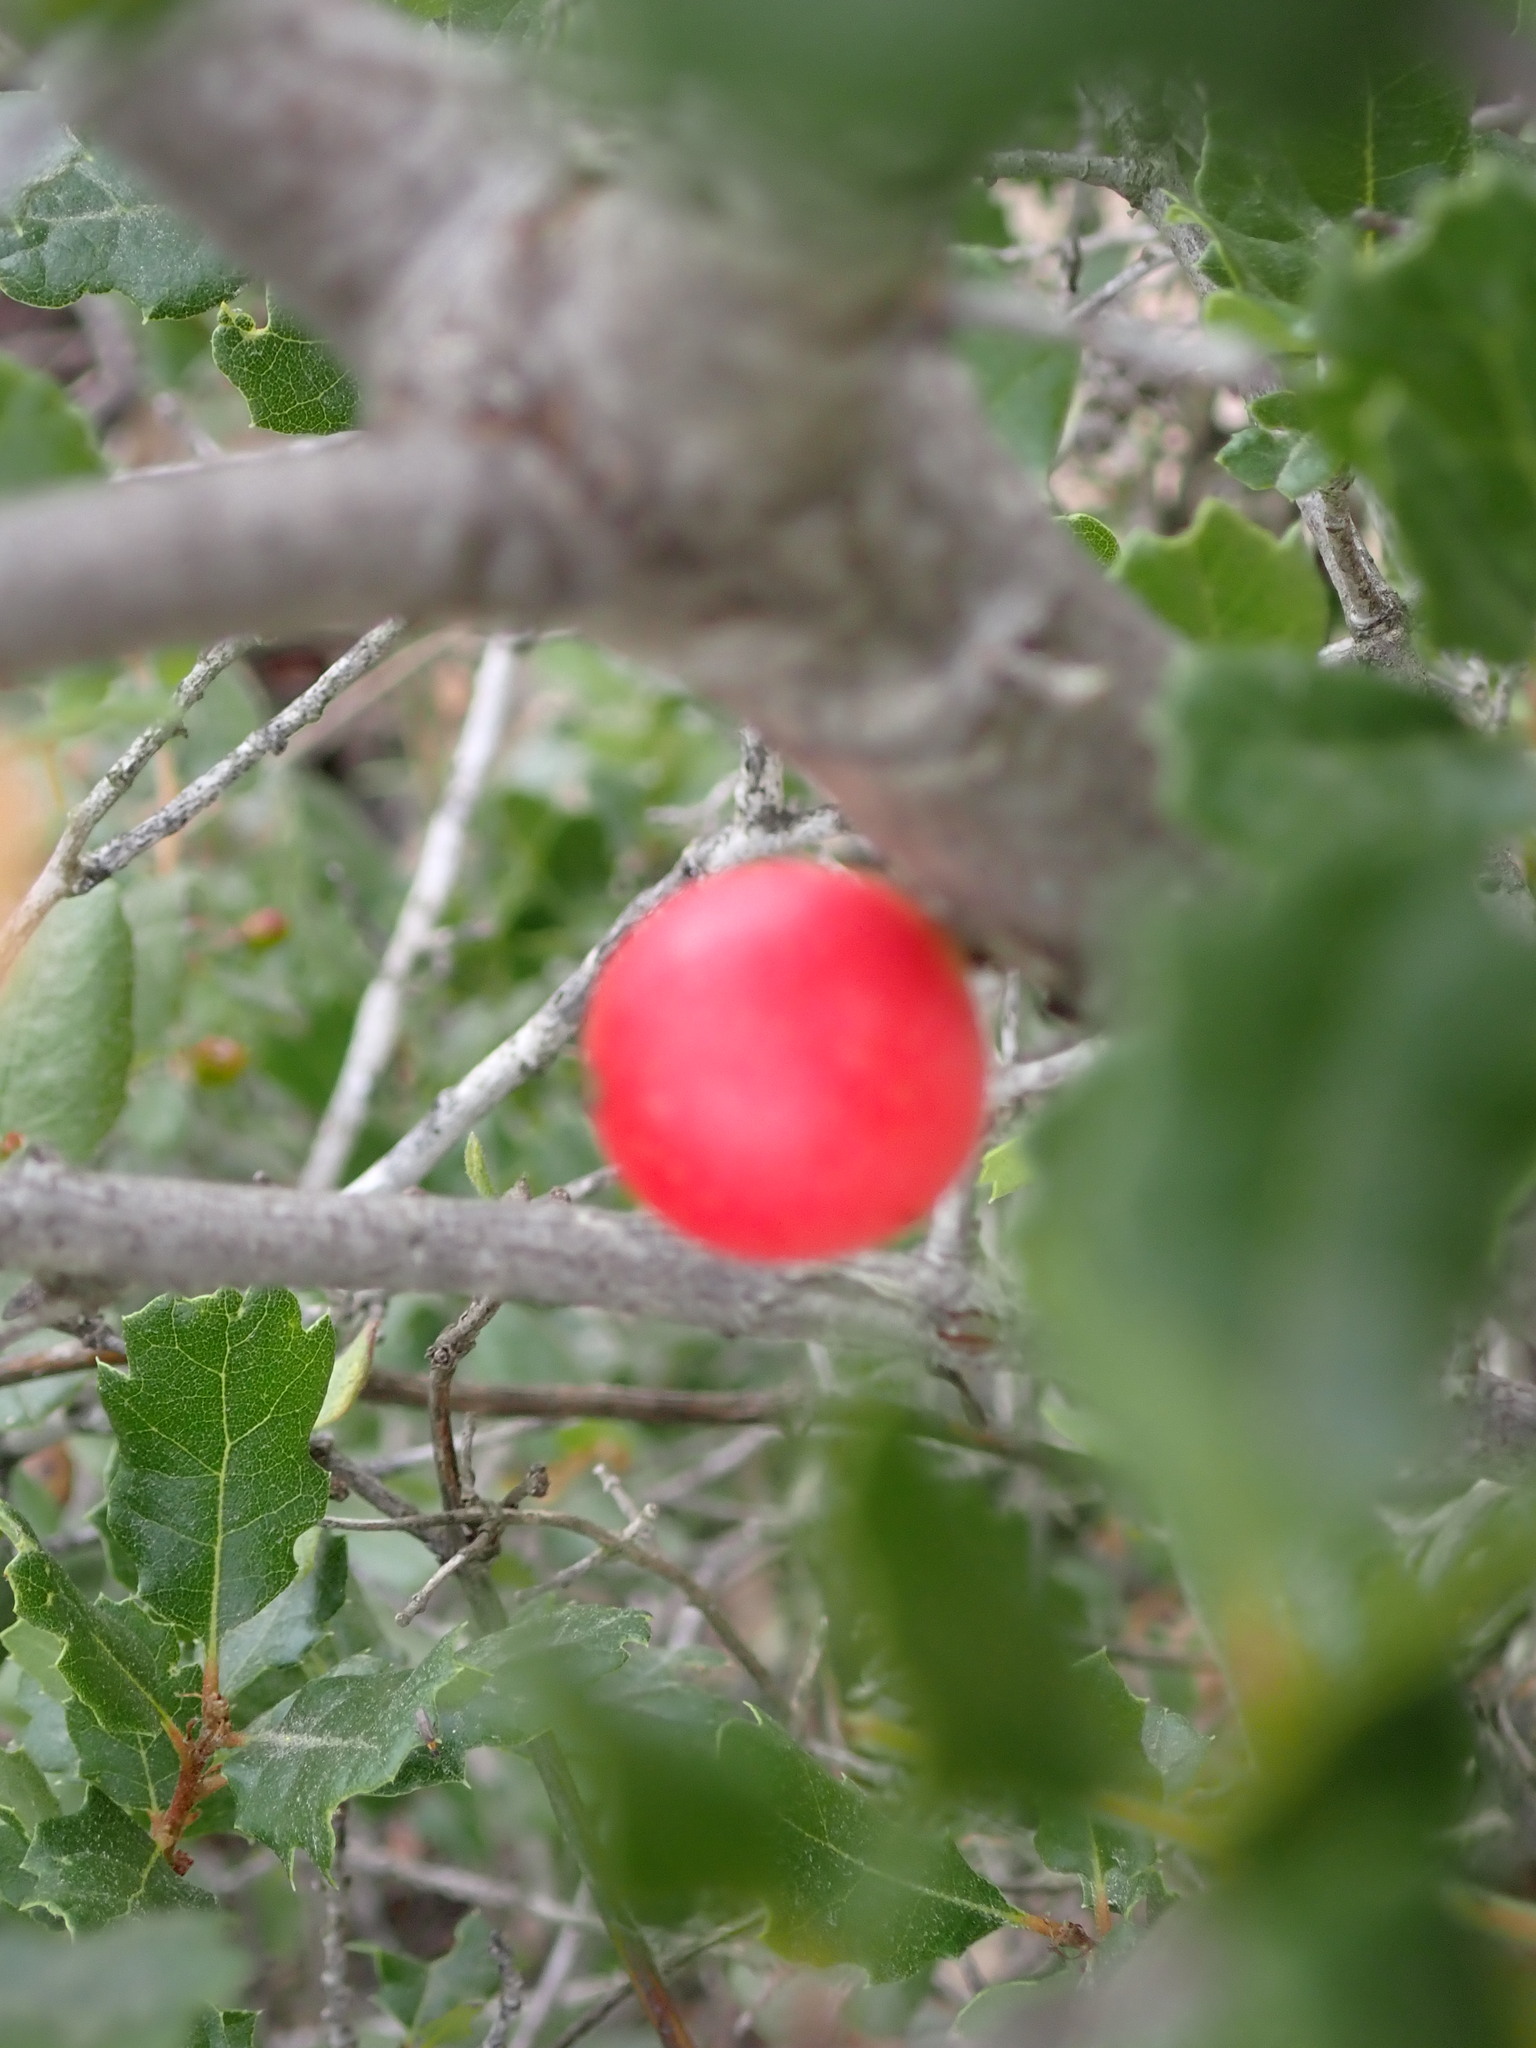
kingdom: Animalia
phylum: Arthropoda
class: Insecta
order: Hymenoptera
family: Cynipidae
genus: Andricus
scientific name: Andricus quercuscalifornicus
